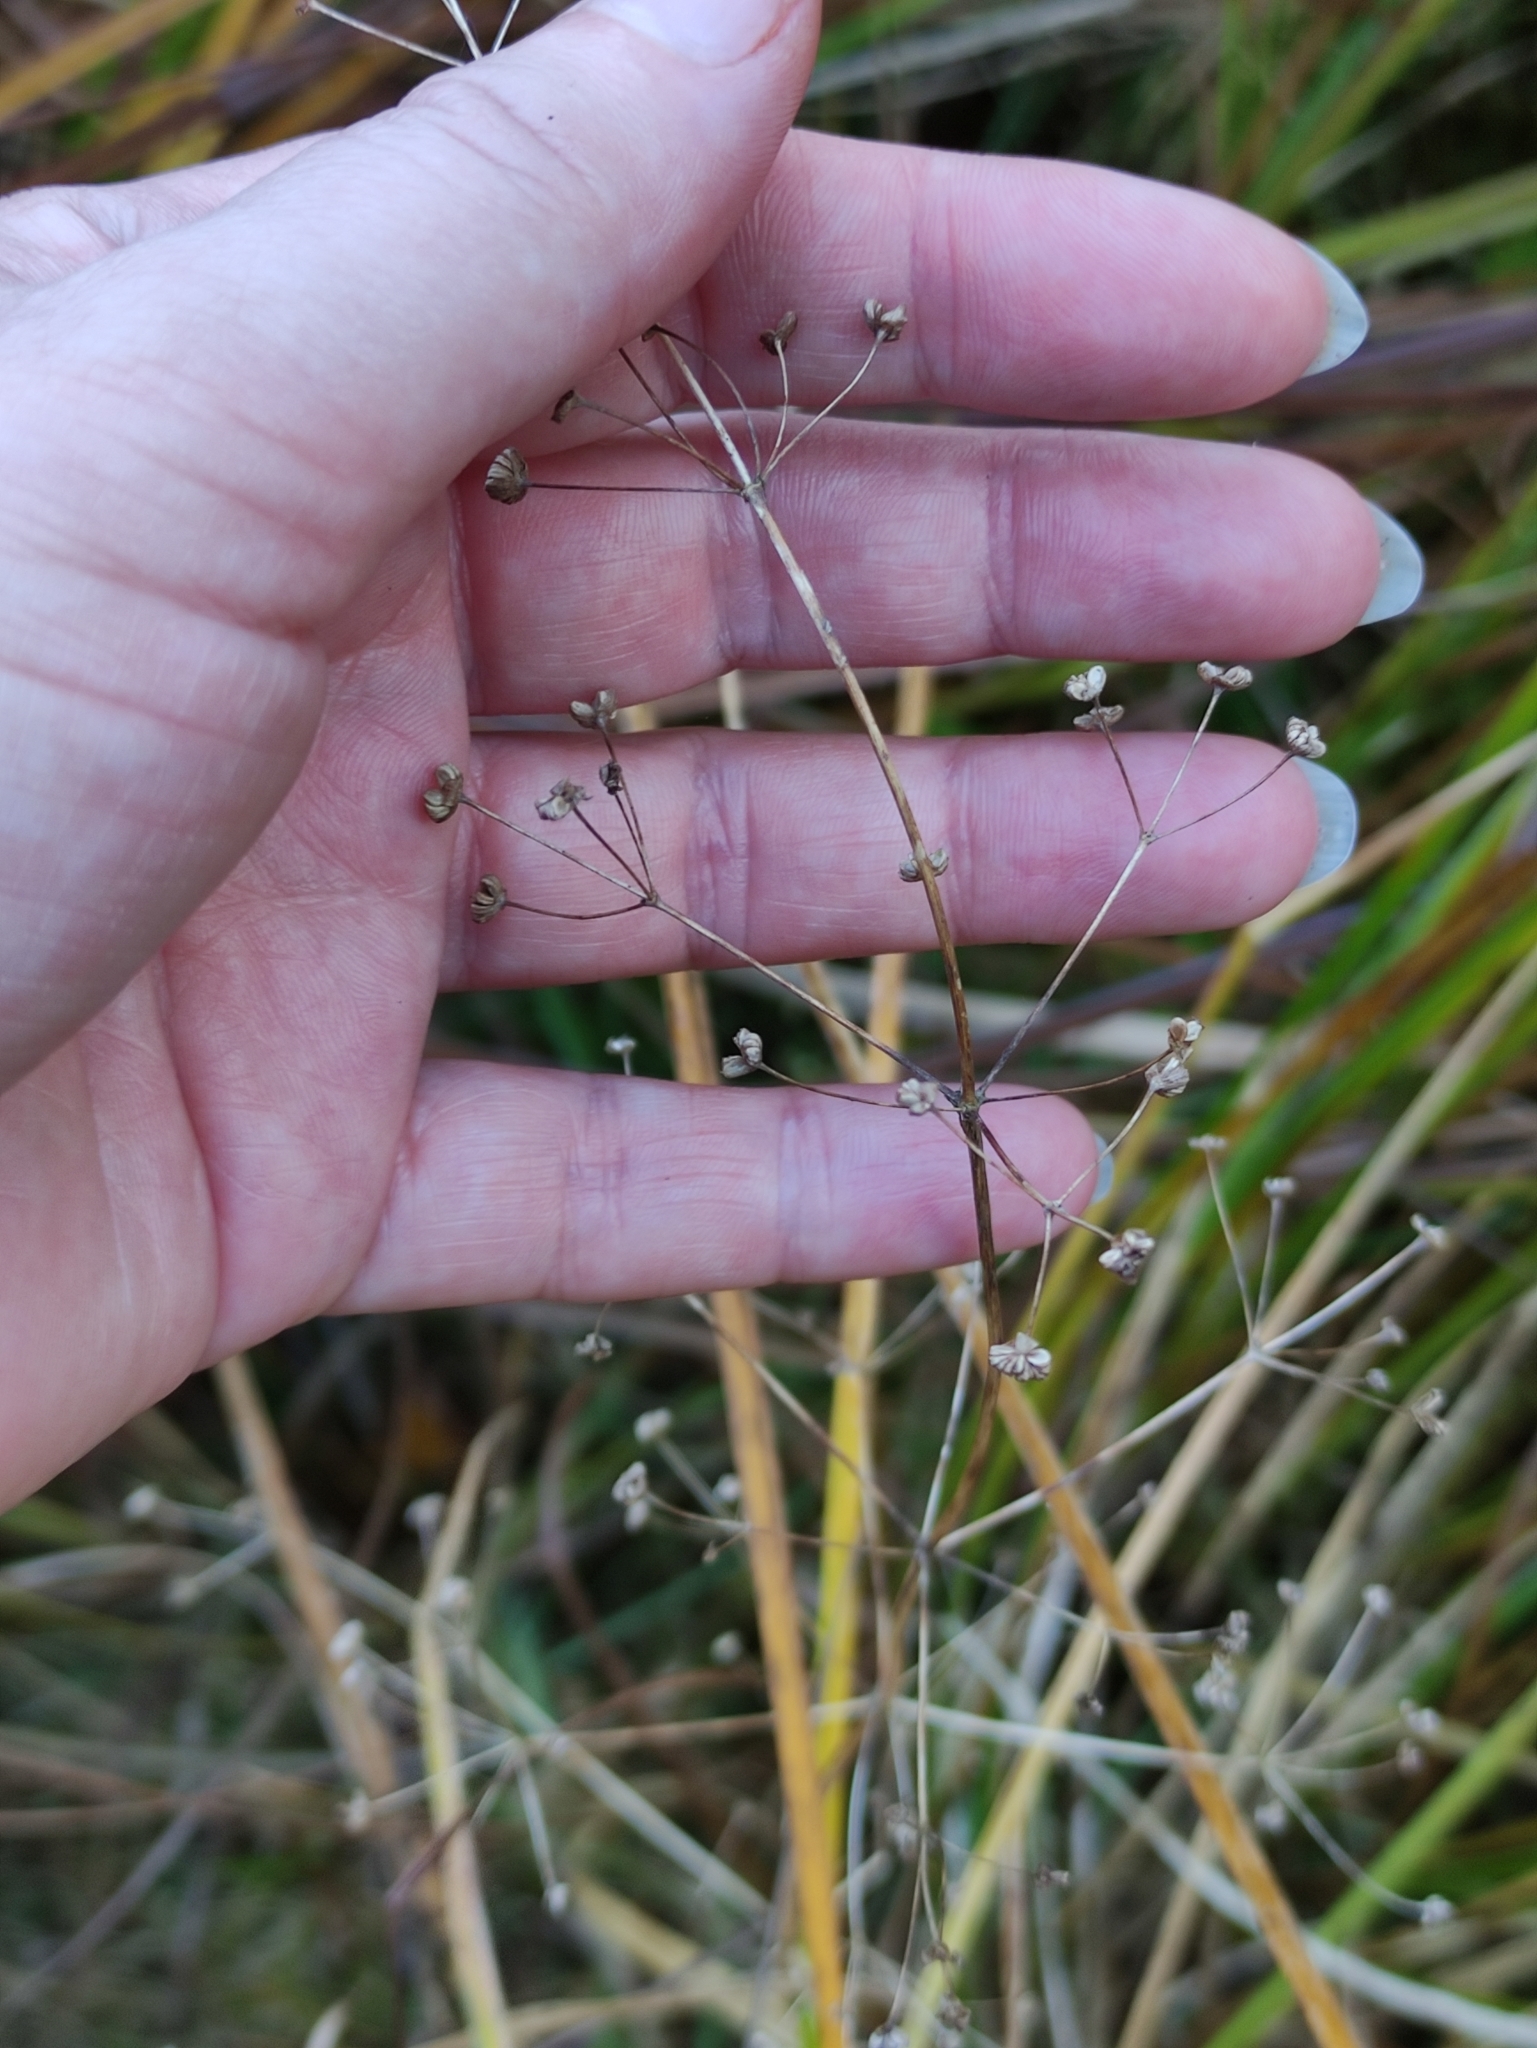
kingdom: Plantae
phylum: Tracheophyta
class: Liliopsida
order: Alismatales
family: Alismataceae
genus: Alisma
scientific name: Alisma plantago-aquatica
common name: Water-plantain
